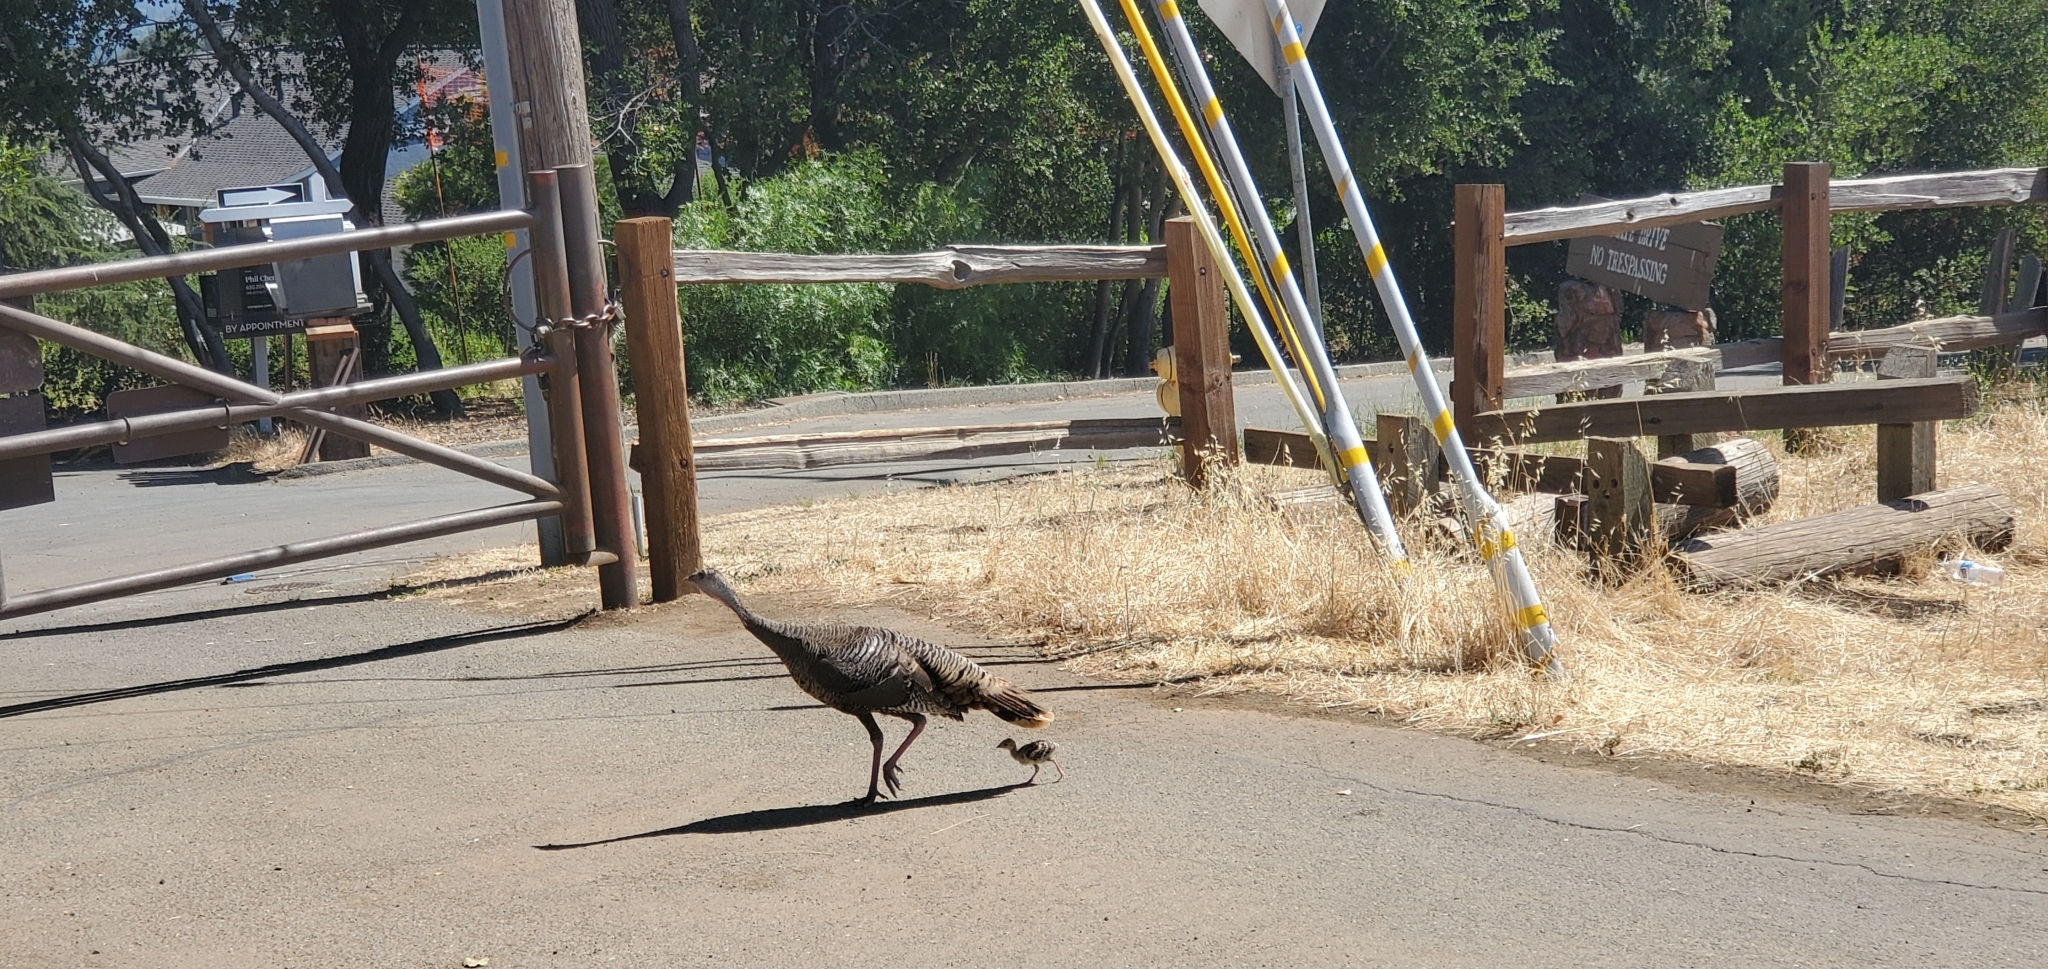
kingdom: Animalia
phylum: Chordata
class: Aves
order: Galliformes
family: Phasianidae
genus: Meleagris
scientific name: Meleagris gallopavo
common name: Wild turkey
